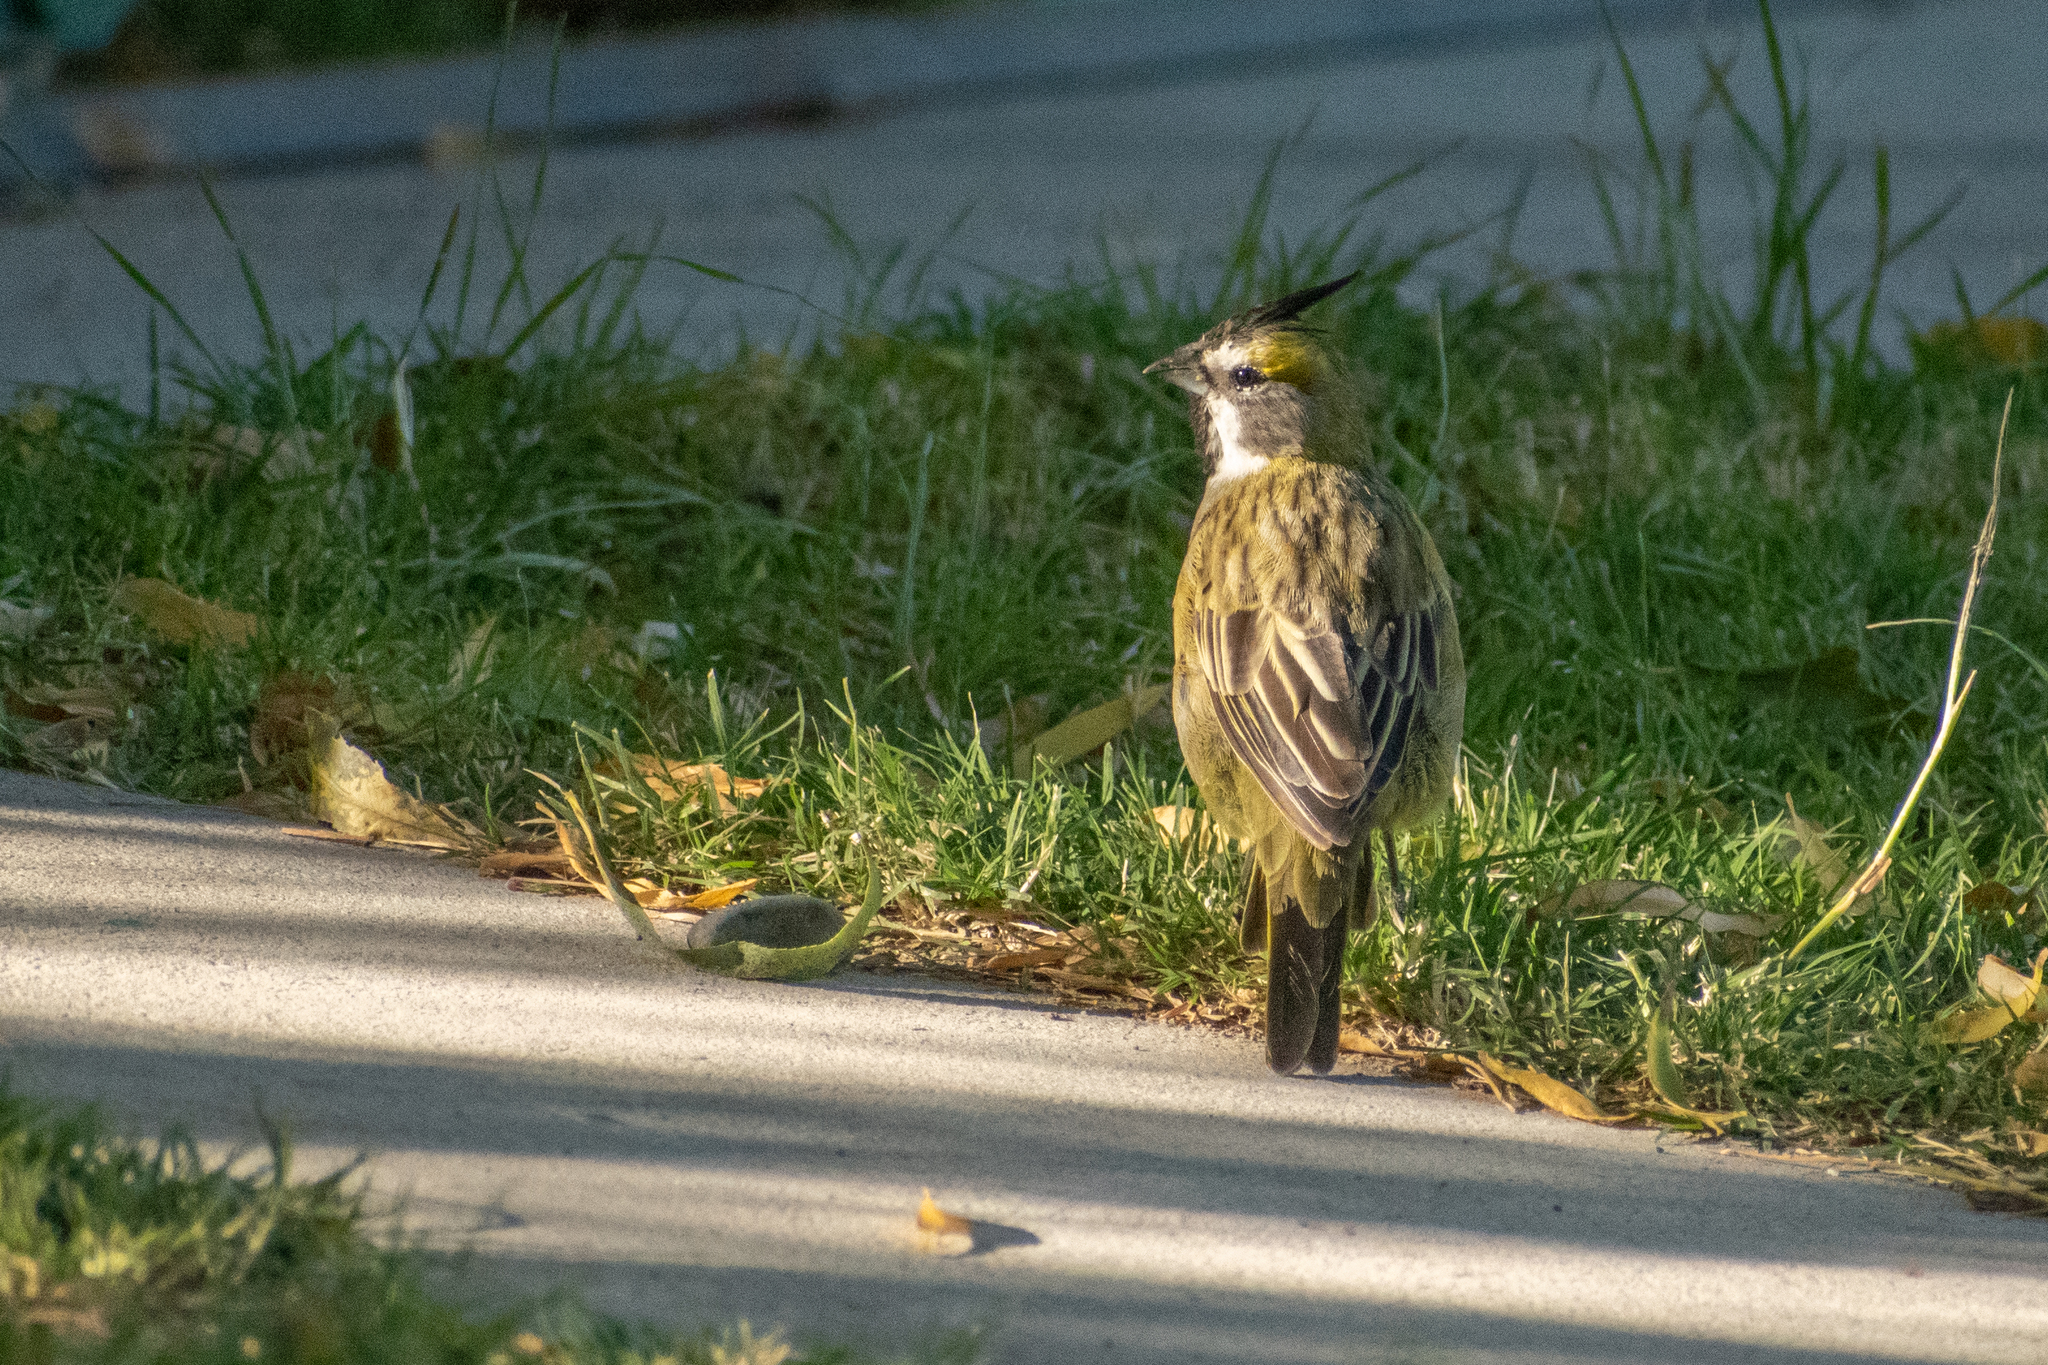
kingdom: Animalia
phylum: Chordata
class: Aves
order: Passeriformes
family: Thraupidae
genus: Gubernatrix
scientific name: Gubernatrix cristata
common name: Yellow cardinal
